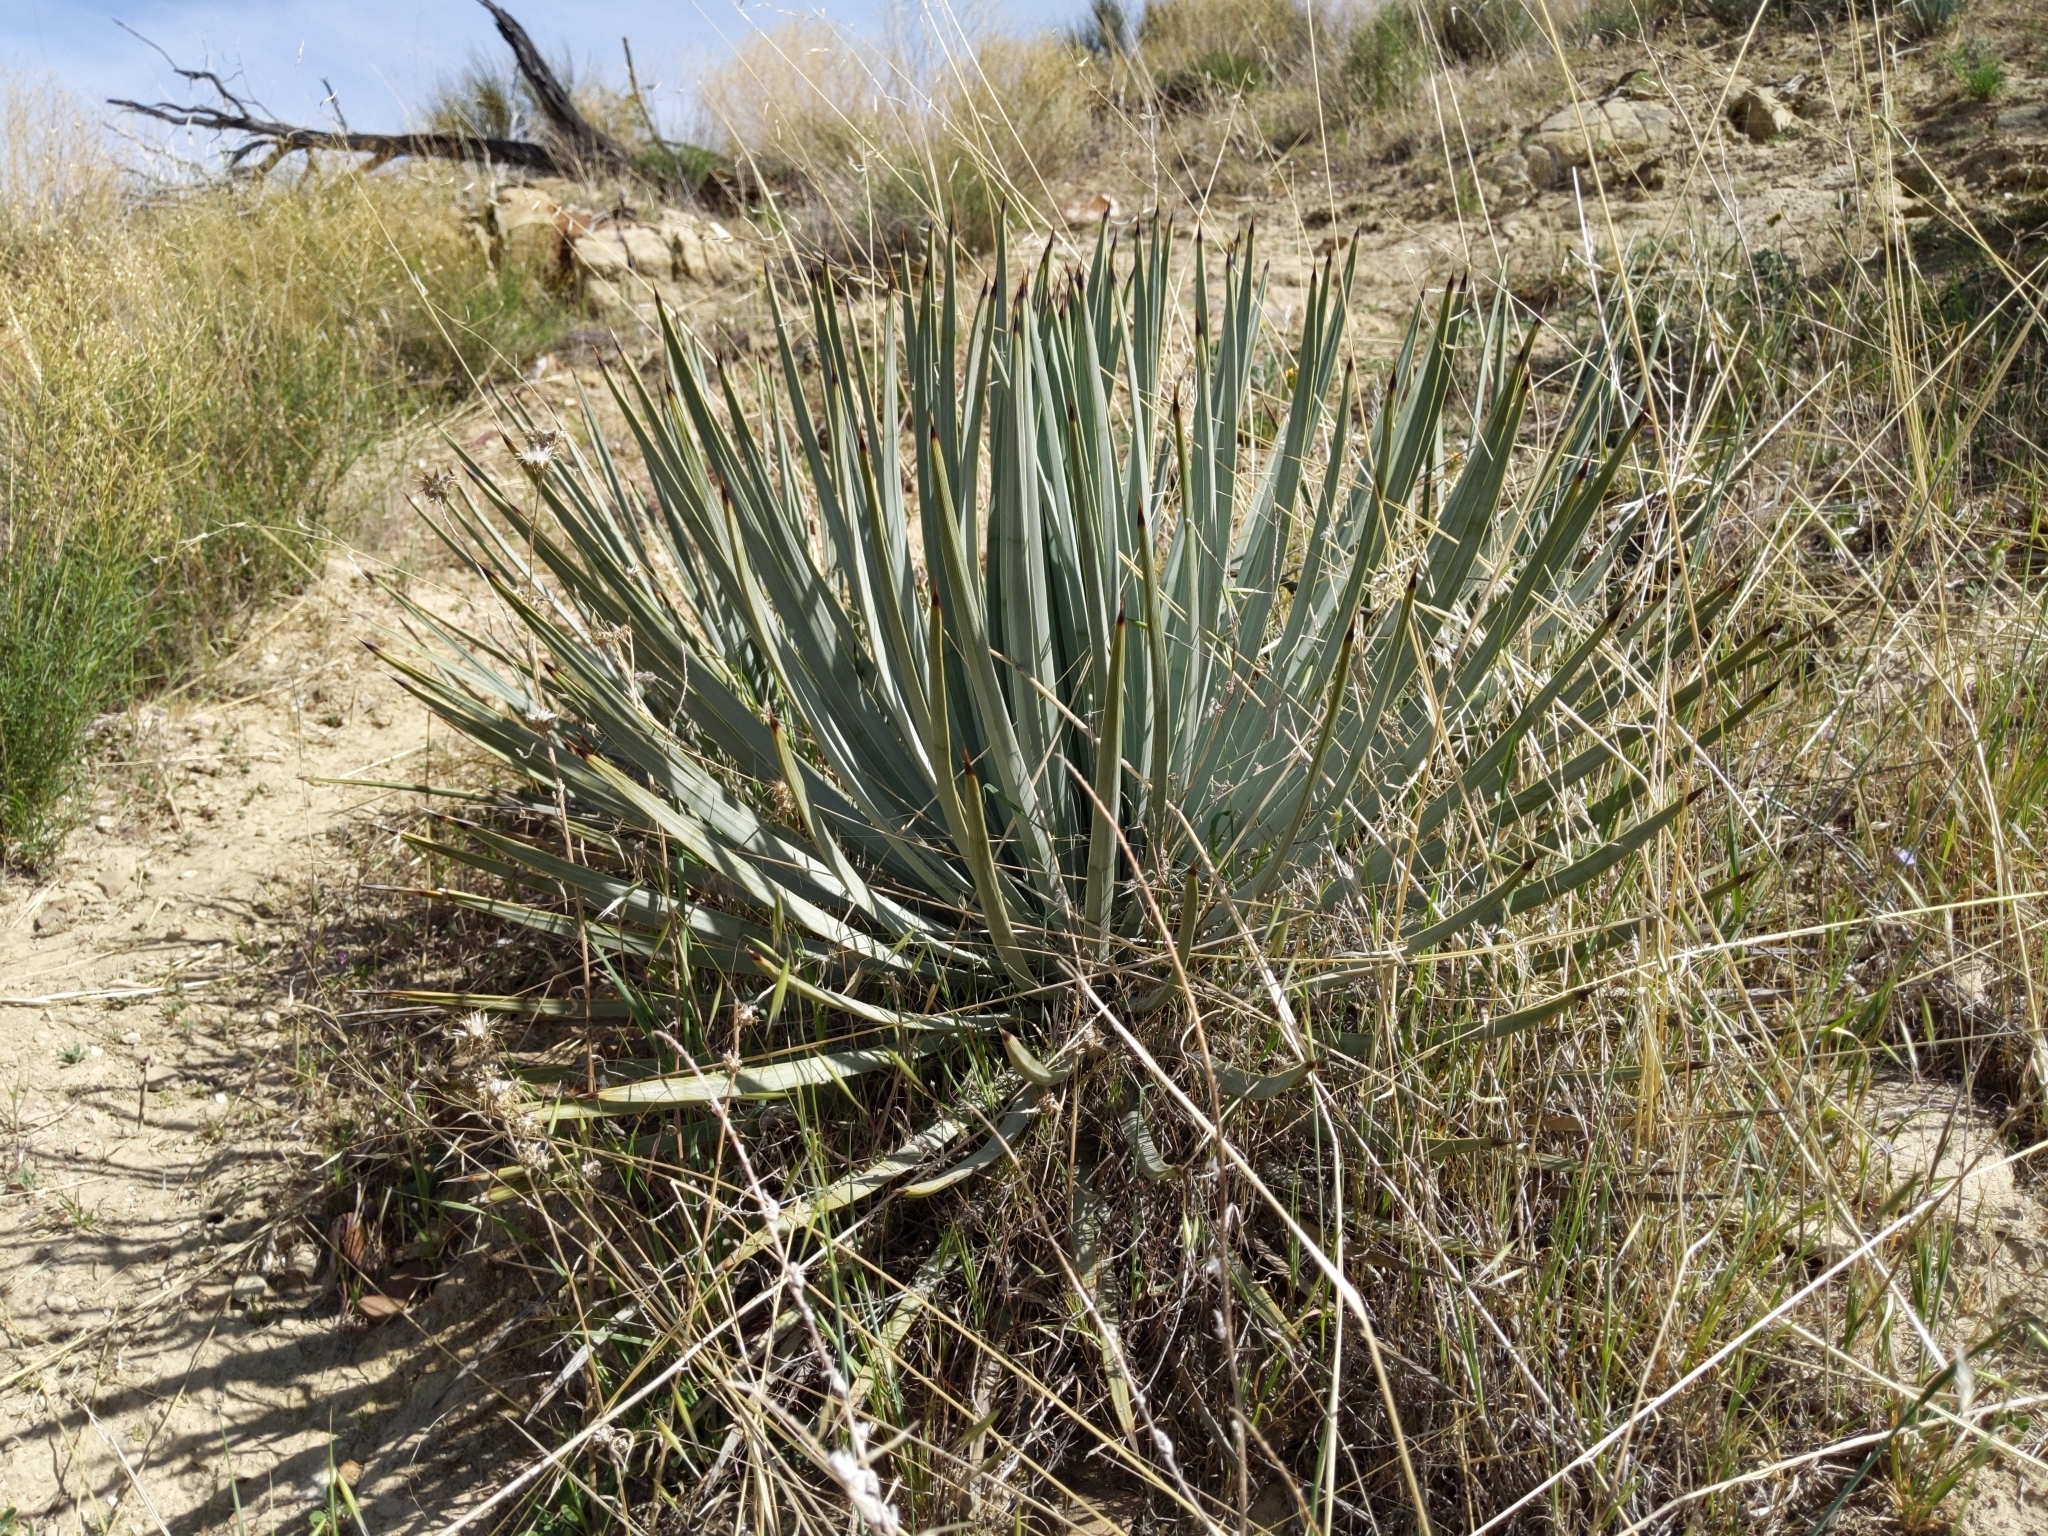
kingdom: Plantae
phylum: Tracheophyta
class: Liliopsida
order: Asparagales
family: Asparagaceae
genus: Hesperoyucca
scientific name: Hesperoyucca whipplei
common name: Our lord's-candle
